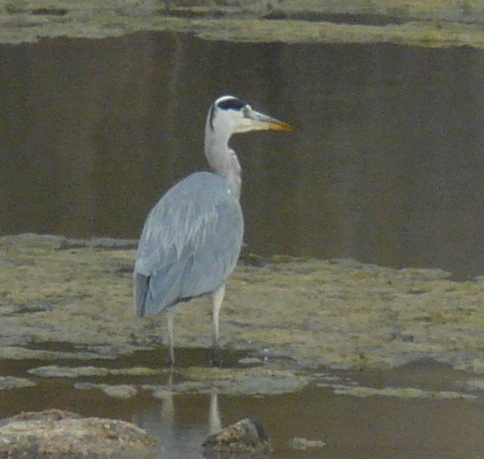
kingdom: Animalia
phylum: Chordata
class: Aves
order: Pelecaniformes
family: Ardeidae
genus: Ardea
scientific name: Ardea cinerea
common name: Grey heron
